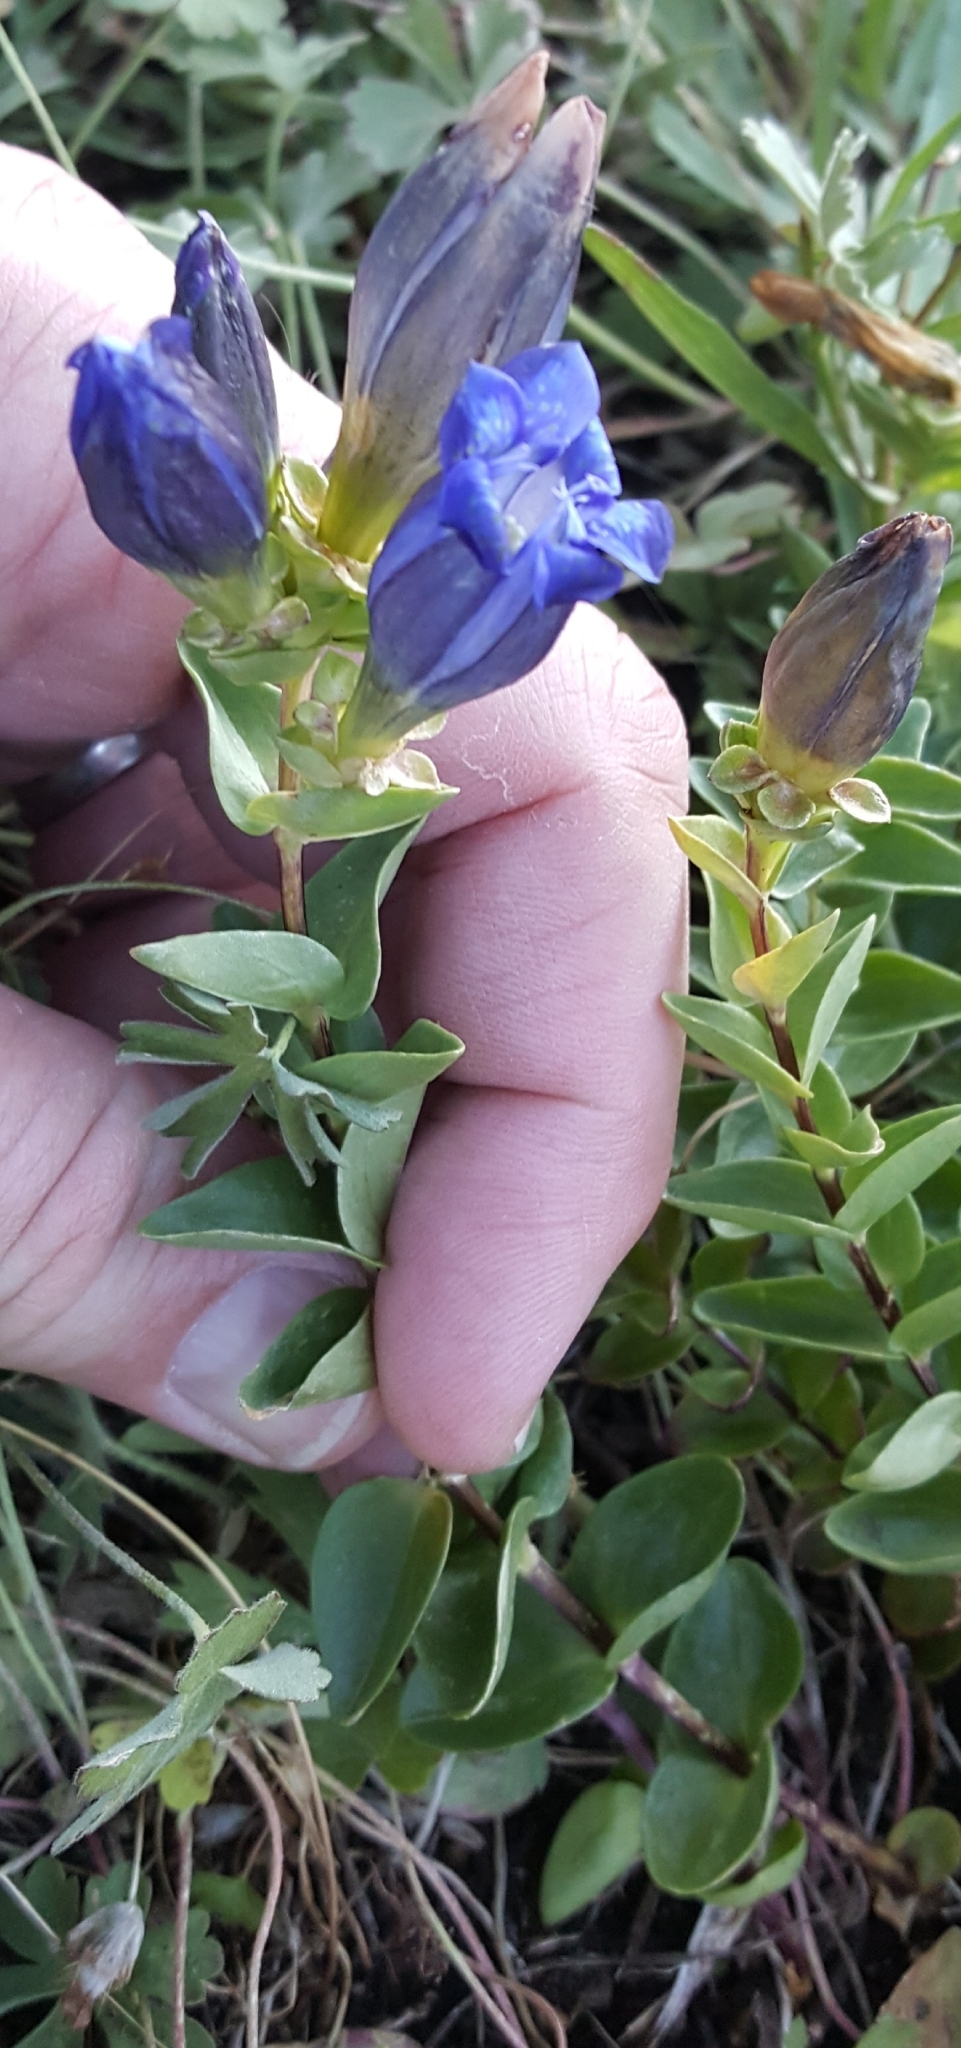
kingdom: Plantae
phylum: Tracheophyta
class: Magnoliopsida
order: Gentianales
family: Gentianaceae
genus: Gentiana
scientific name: Gentiana calycosa
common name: Rainier pleated gentian
